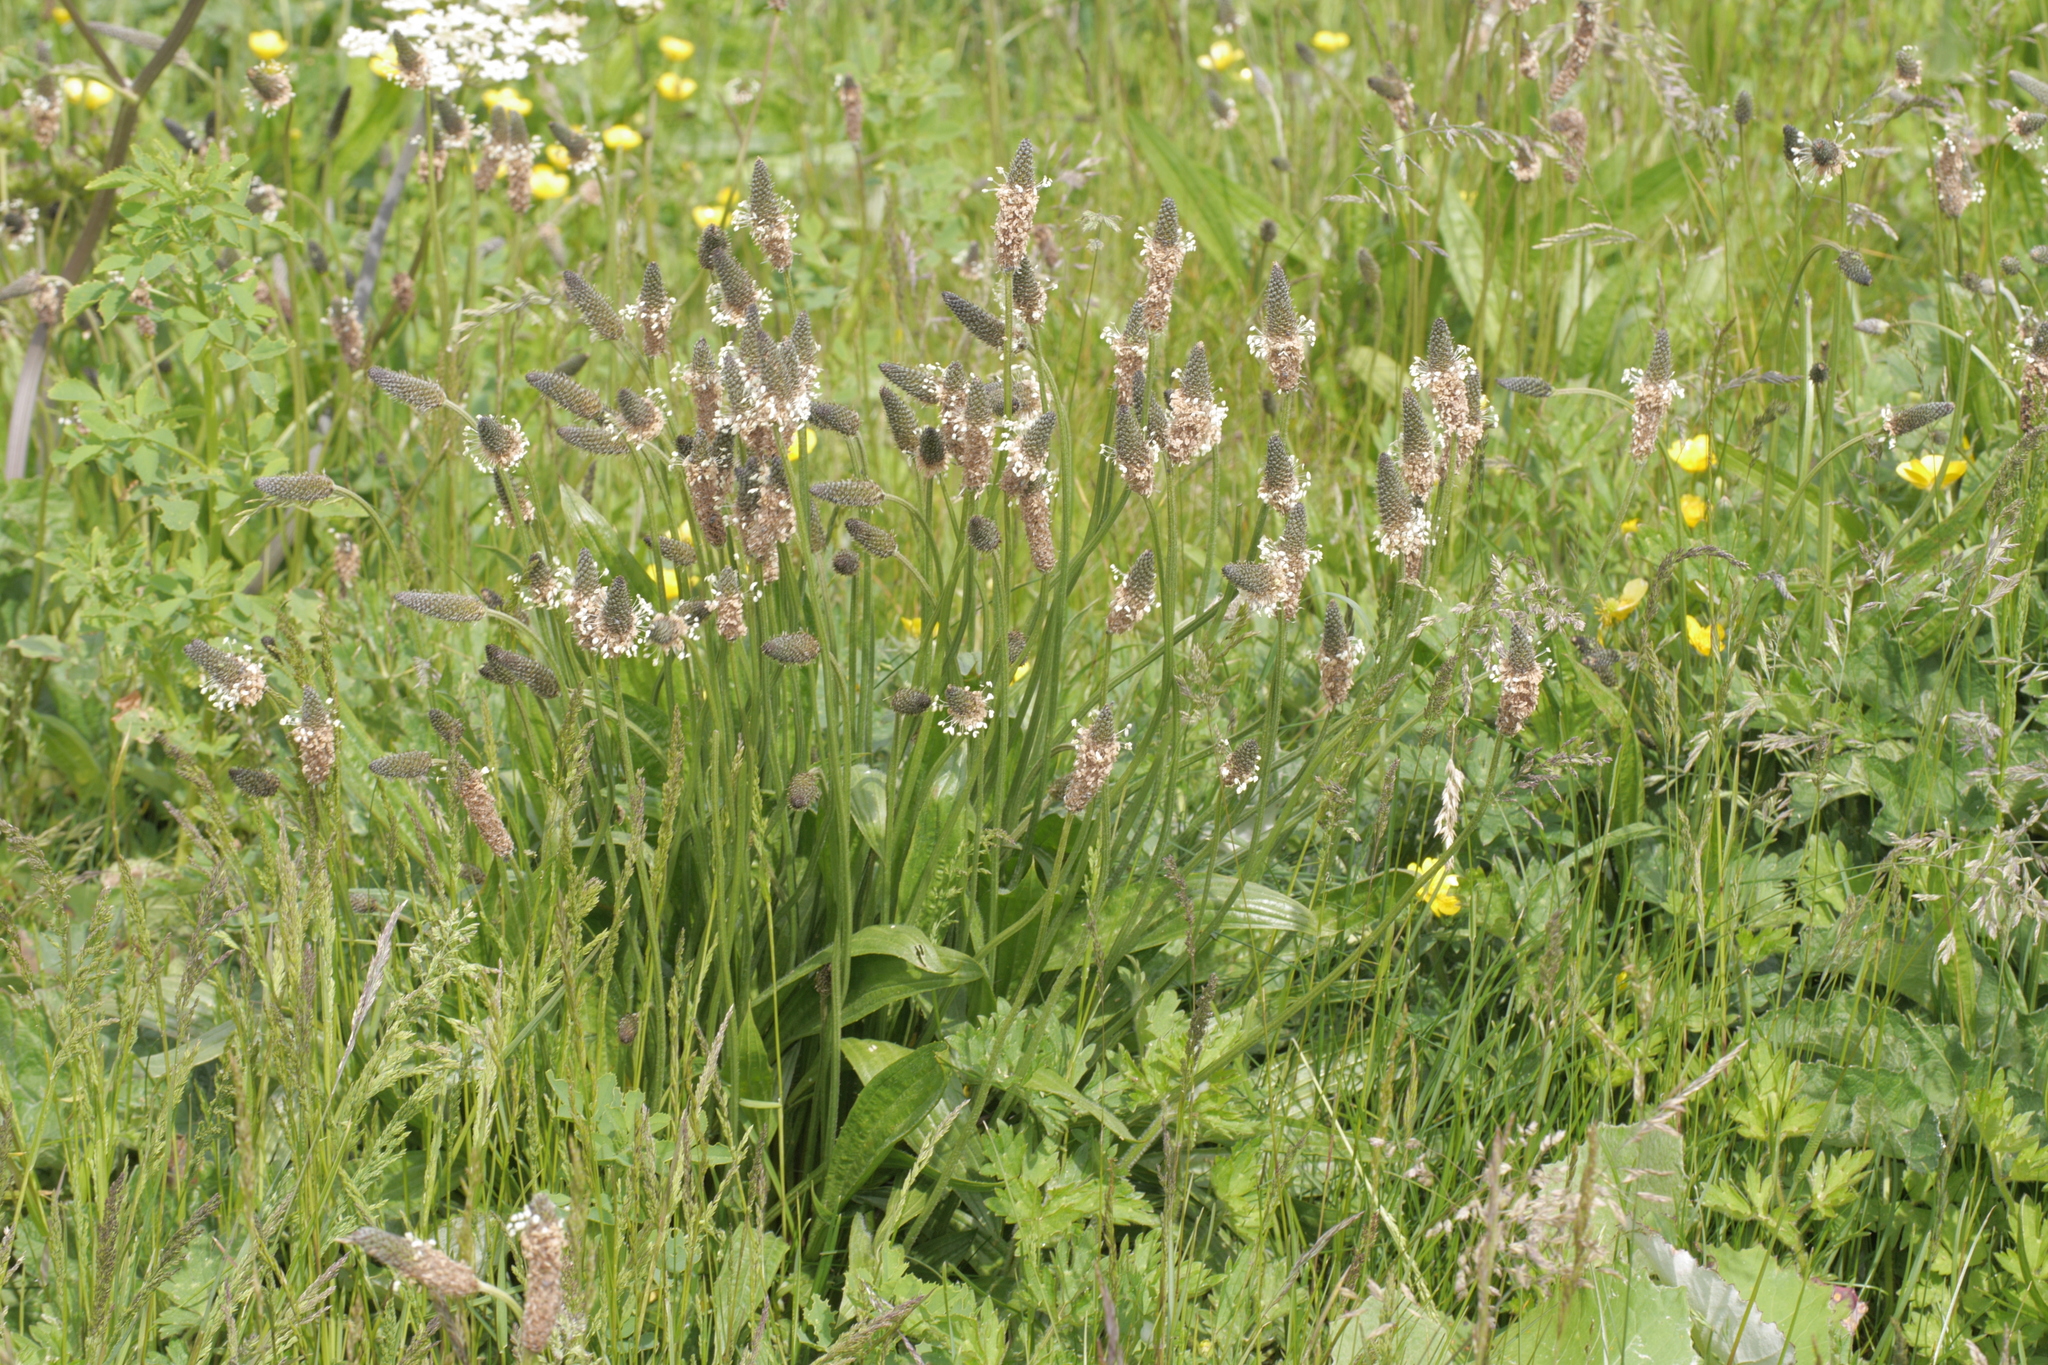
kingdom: Plantae
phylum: Tracheophyta
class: Magnoliopsida
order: Lamiales
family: Plantaginaceae
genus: Plantago
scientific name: Plantago lanceolata
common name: Ribwort plantain
